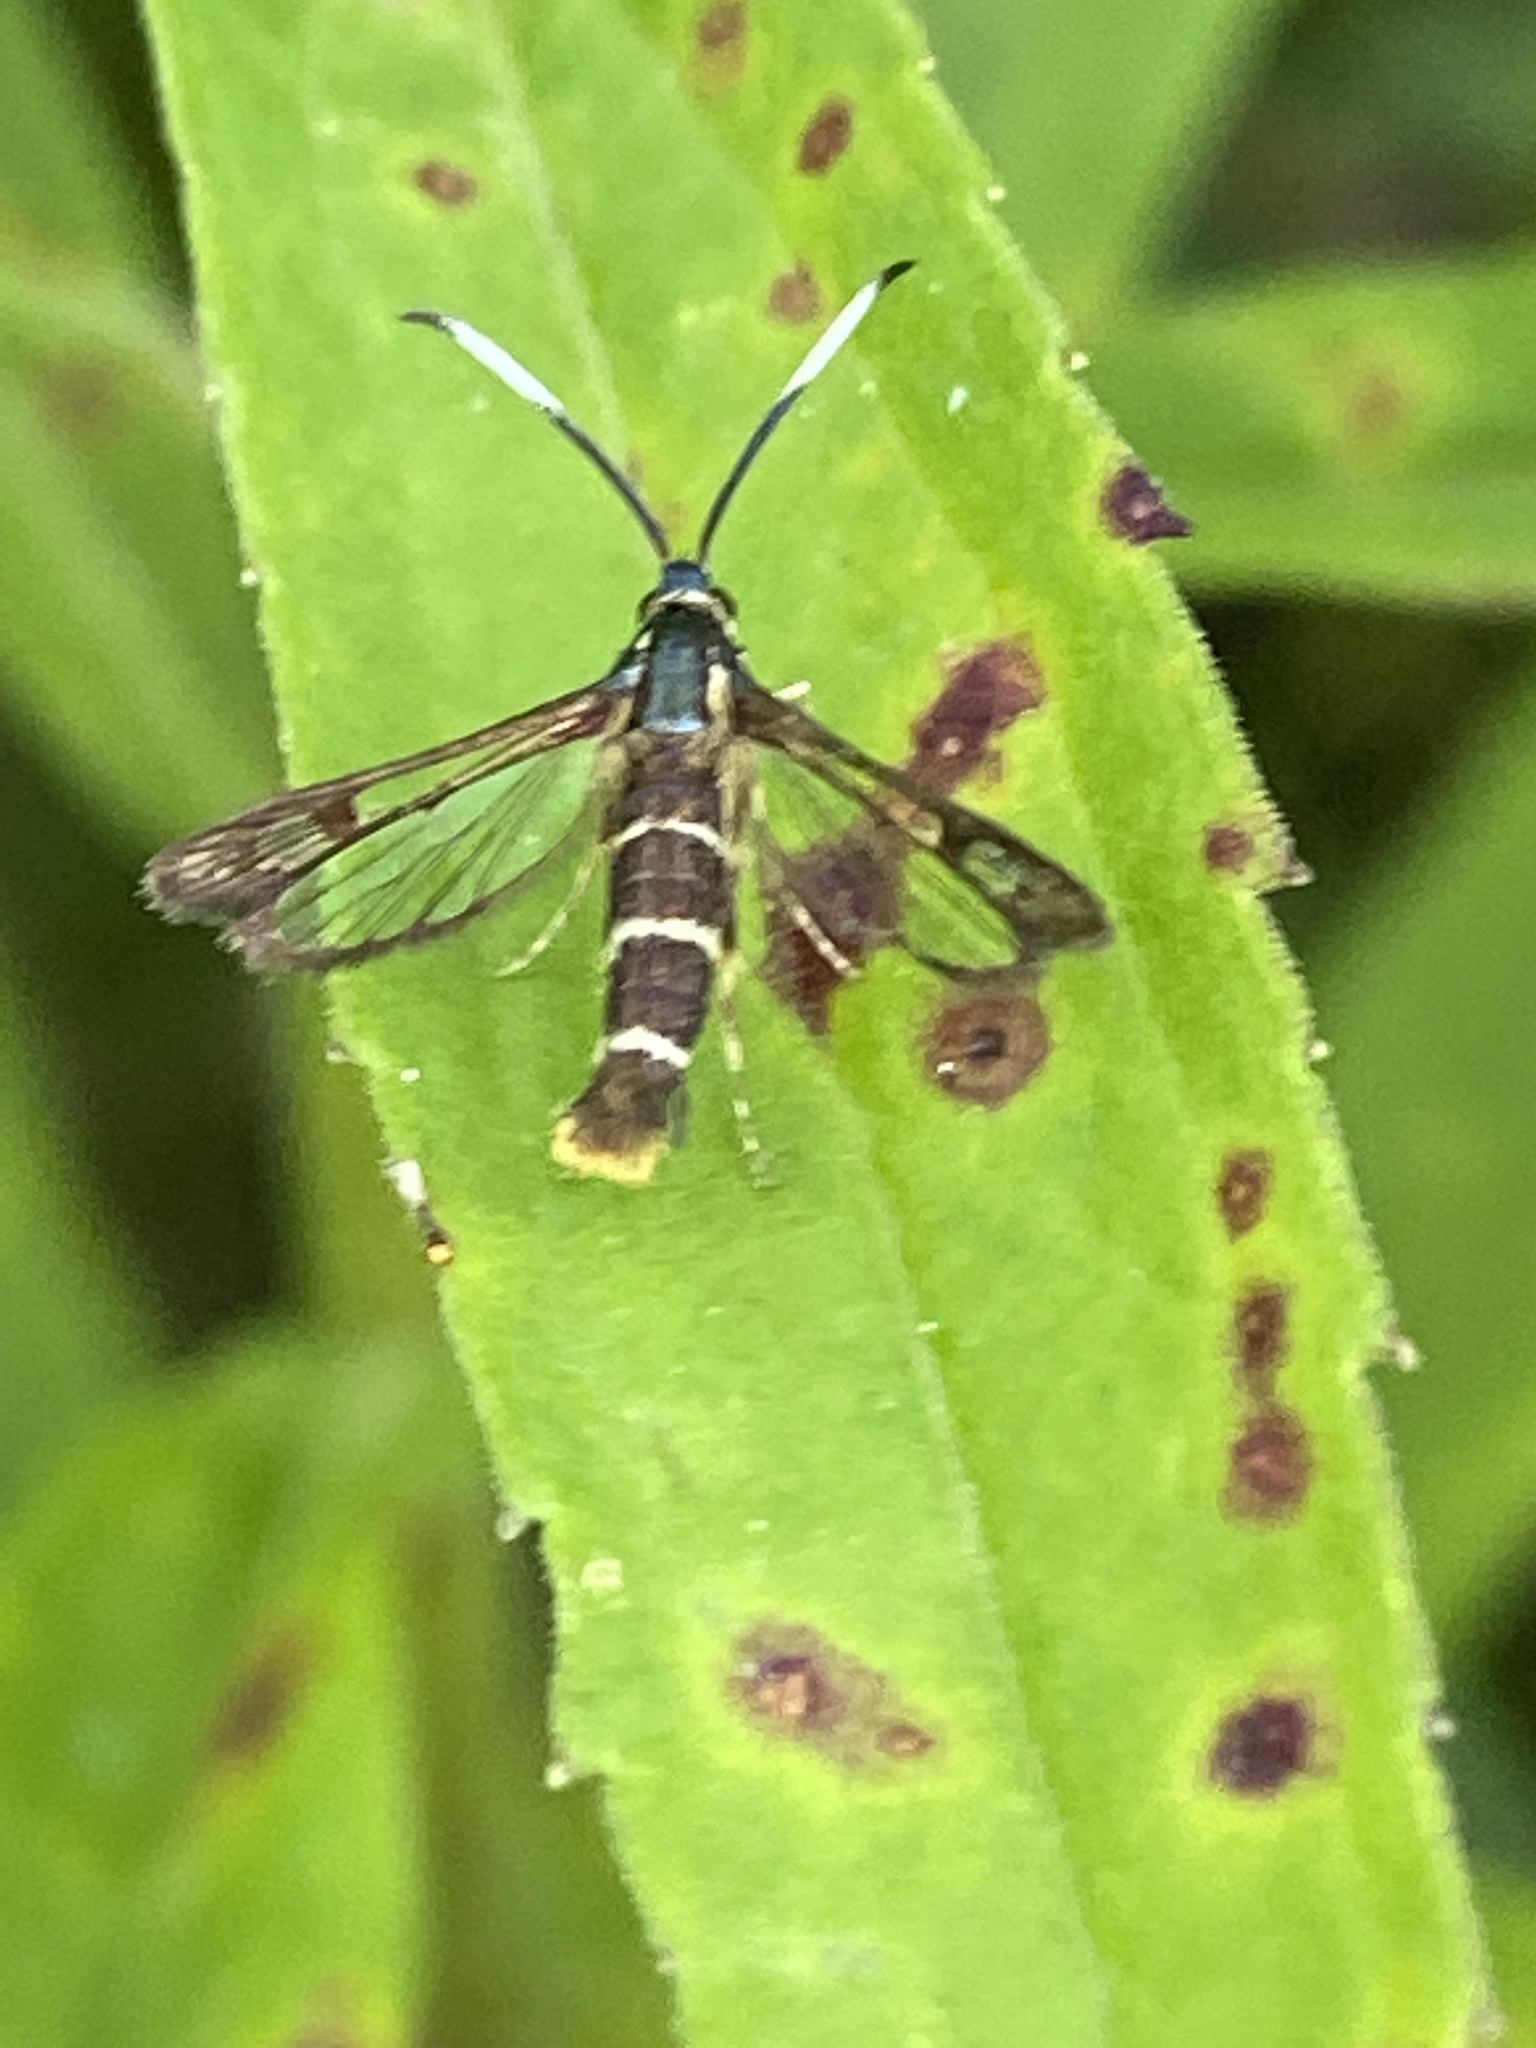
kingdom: Animalia
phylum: Arthropoda
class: Insecta
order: Lepidoptera
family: Sesiidae
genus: Carmenta
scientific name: Carmenta bassiformis
